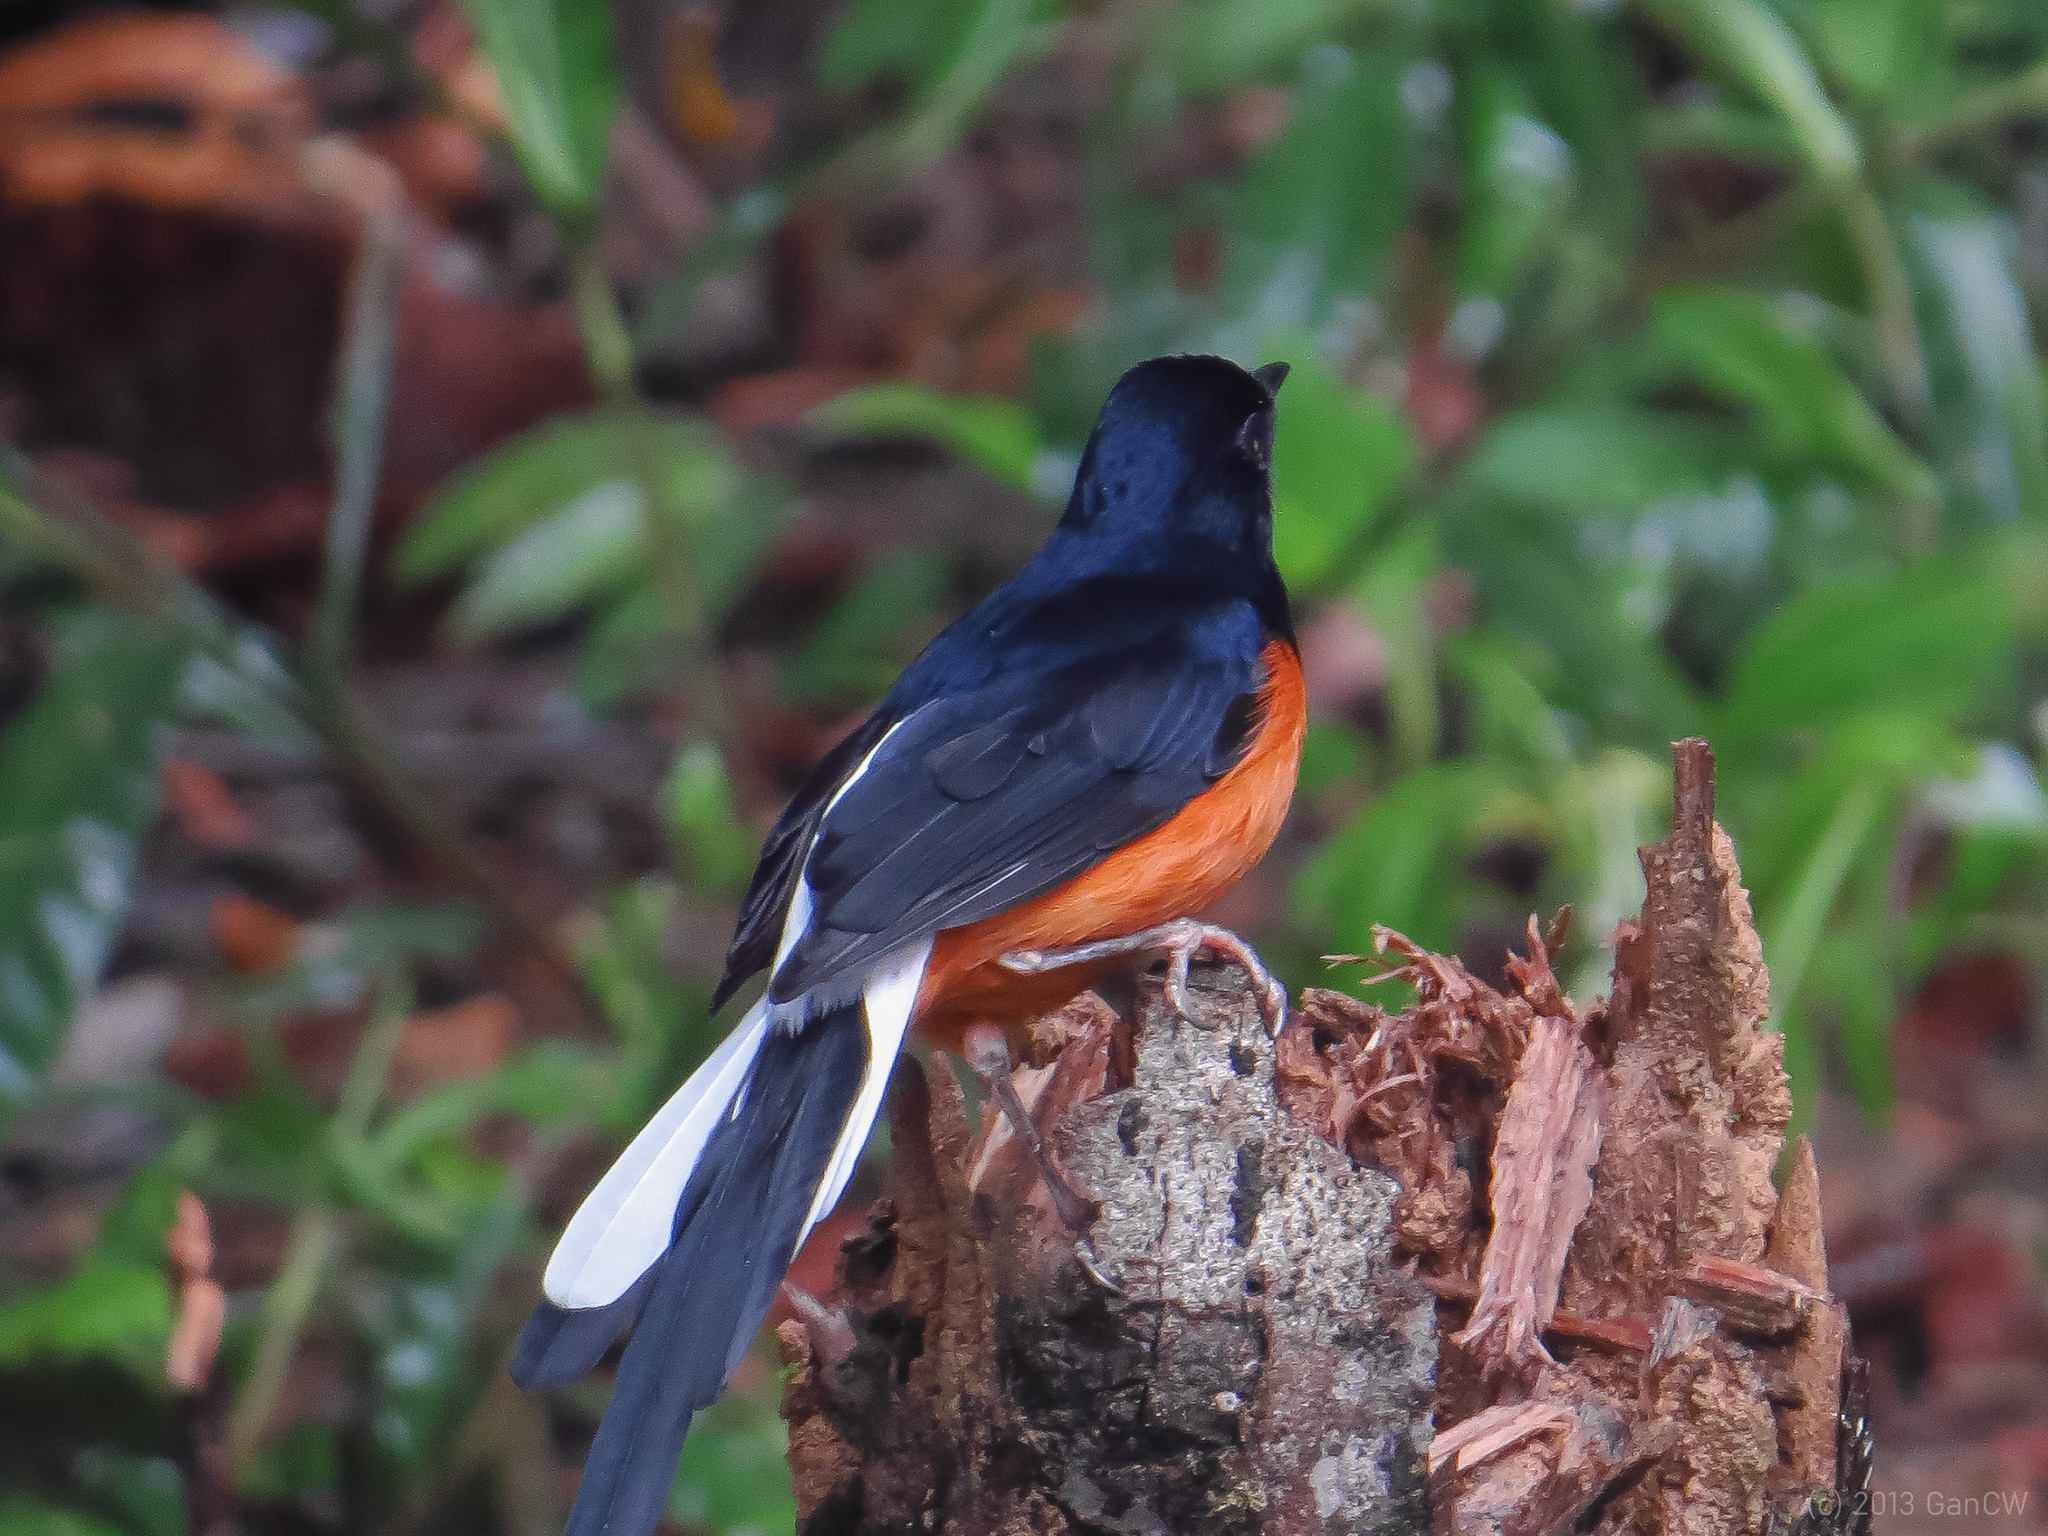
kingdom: Animalia
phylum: Chordata
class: Aves
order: Passeriformes
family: Muscicapidae
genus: Copsychus
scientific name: Copsychus malabaricus
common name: White-rumped shama
